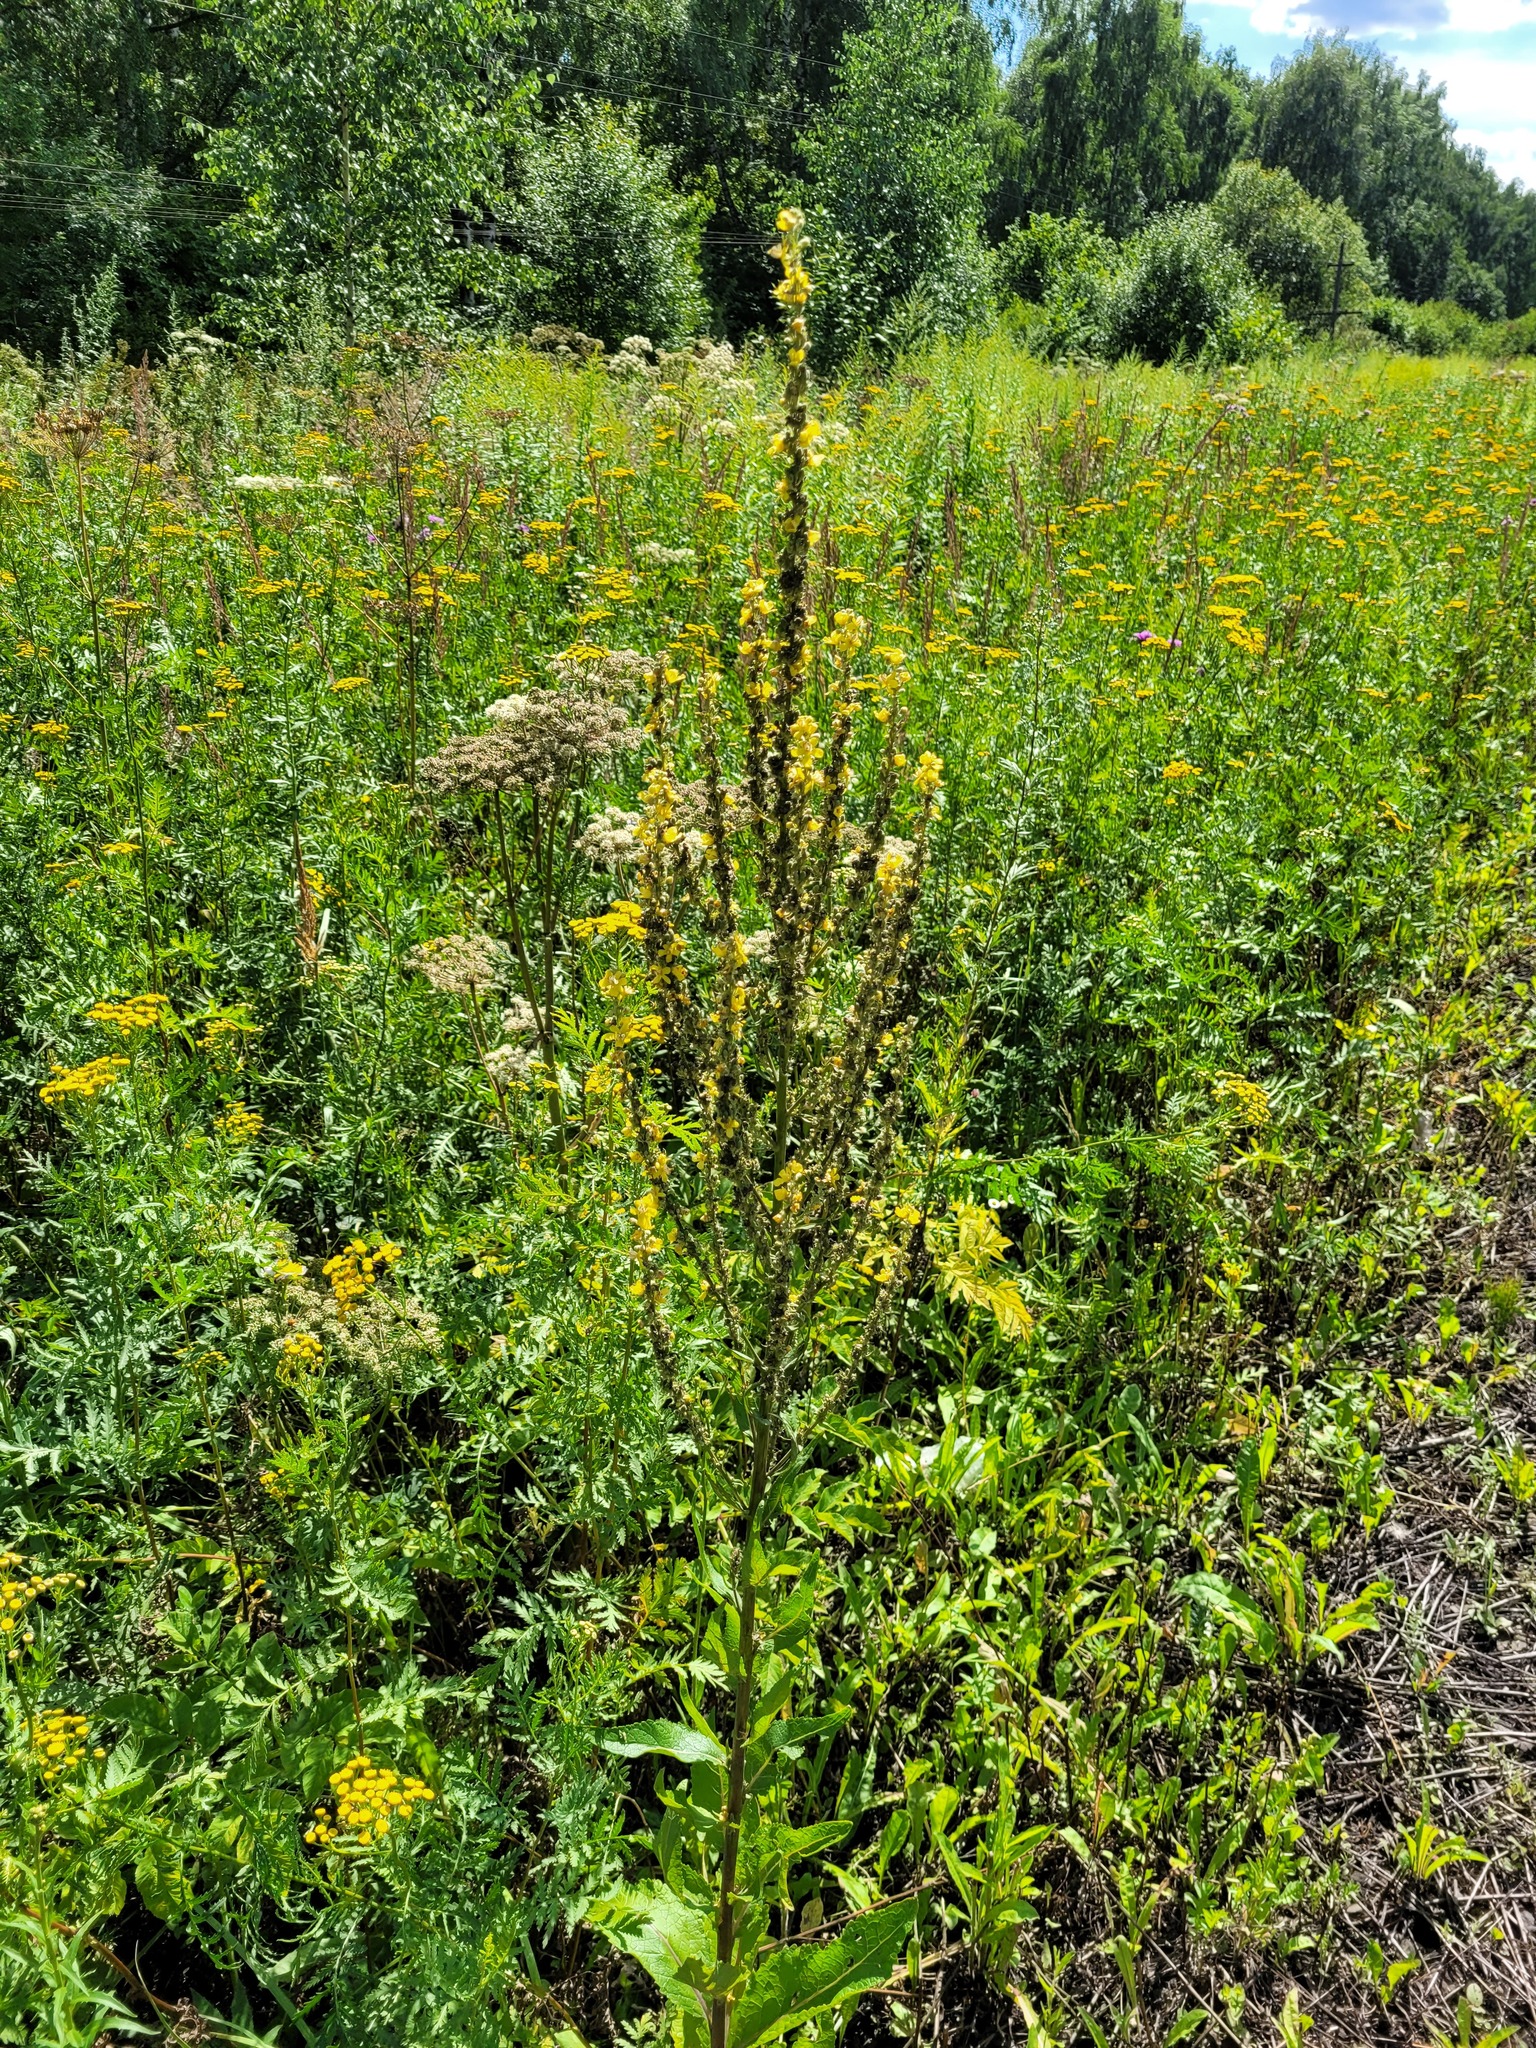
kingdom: Plantae
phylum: Tracheophyta
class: Magnoliopsida
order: Lamiales
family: Scrophulariaceae
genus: Verbascum
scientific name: Verbascum lychnitis
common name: White mullein
